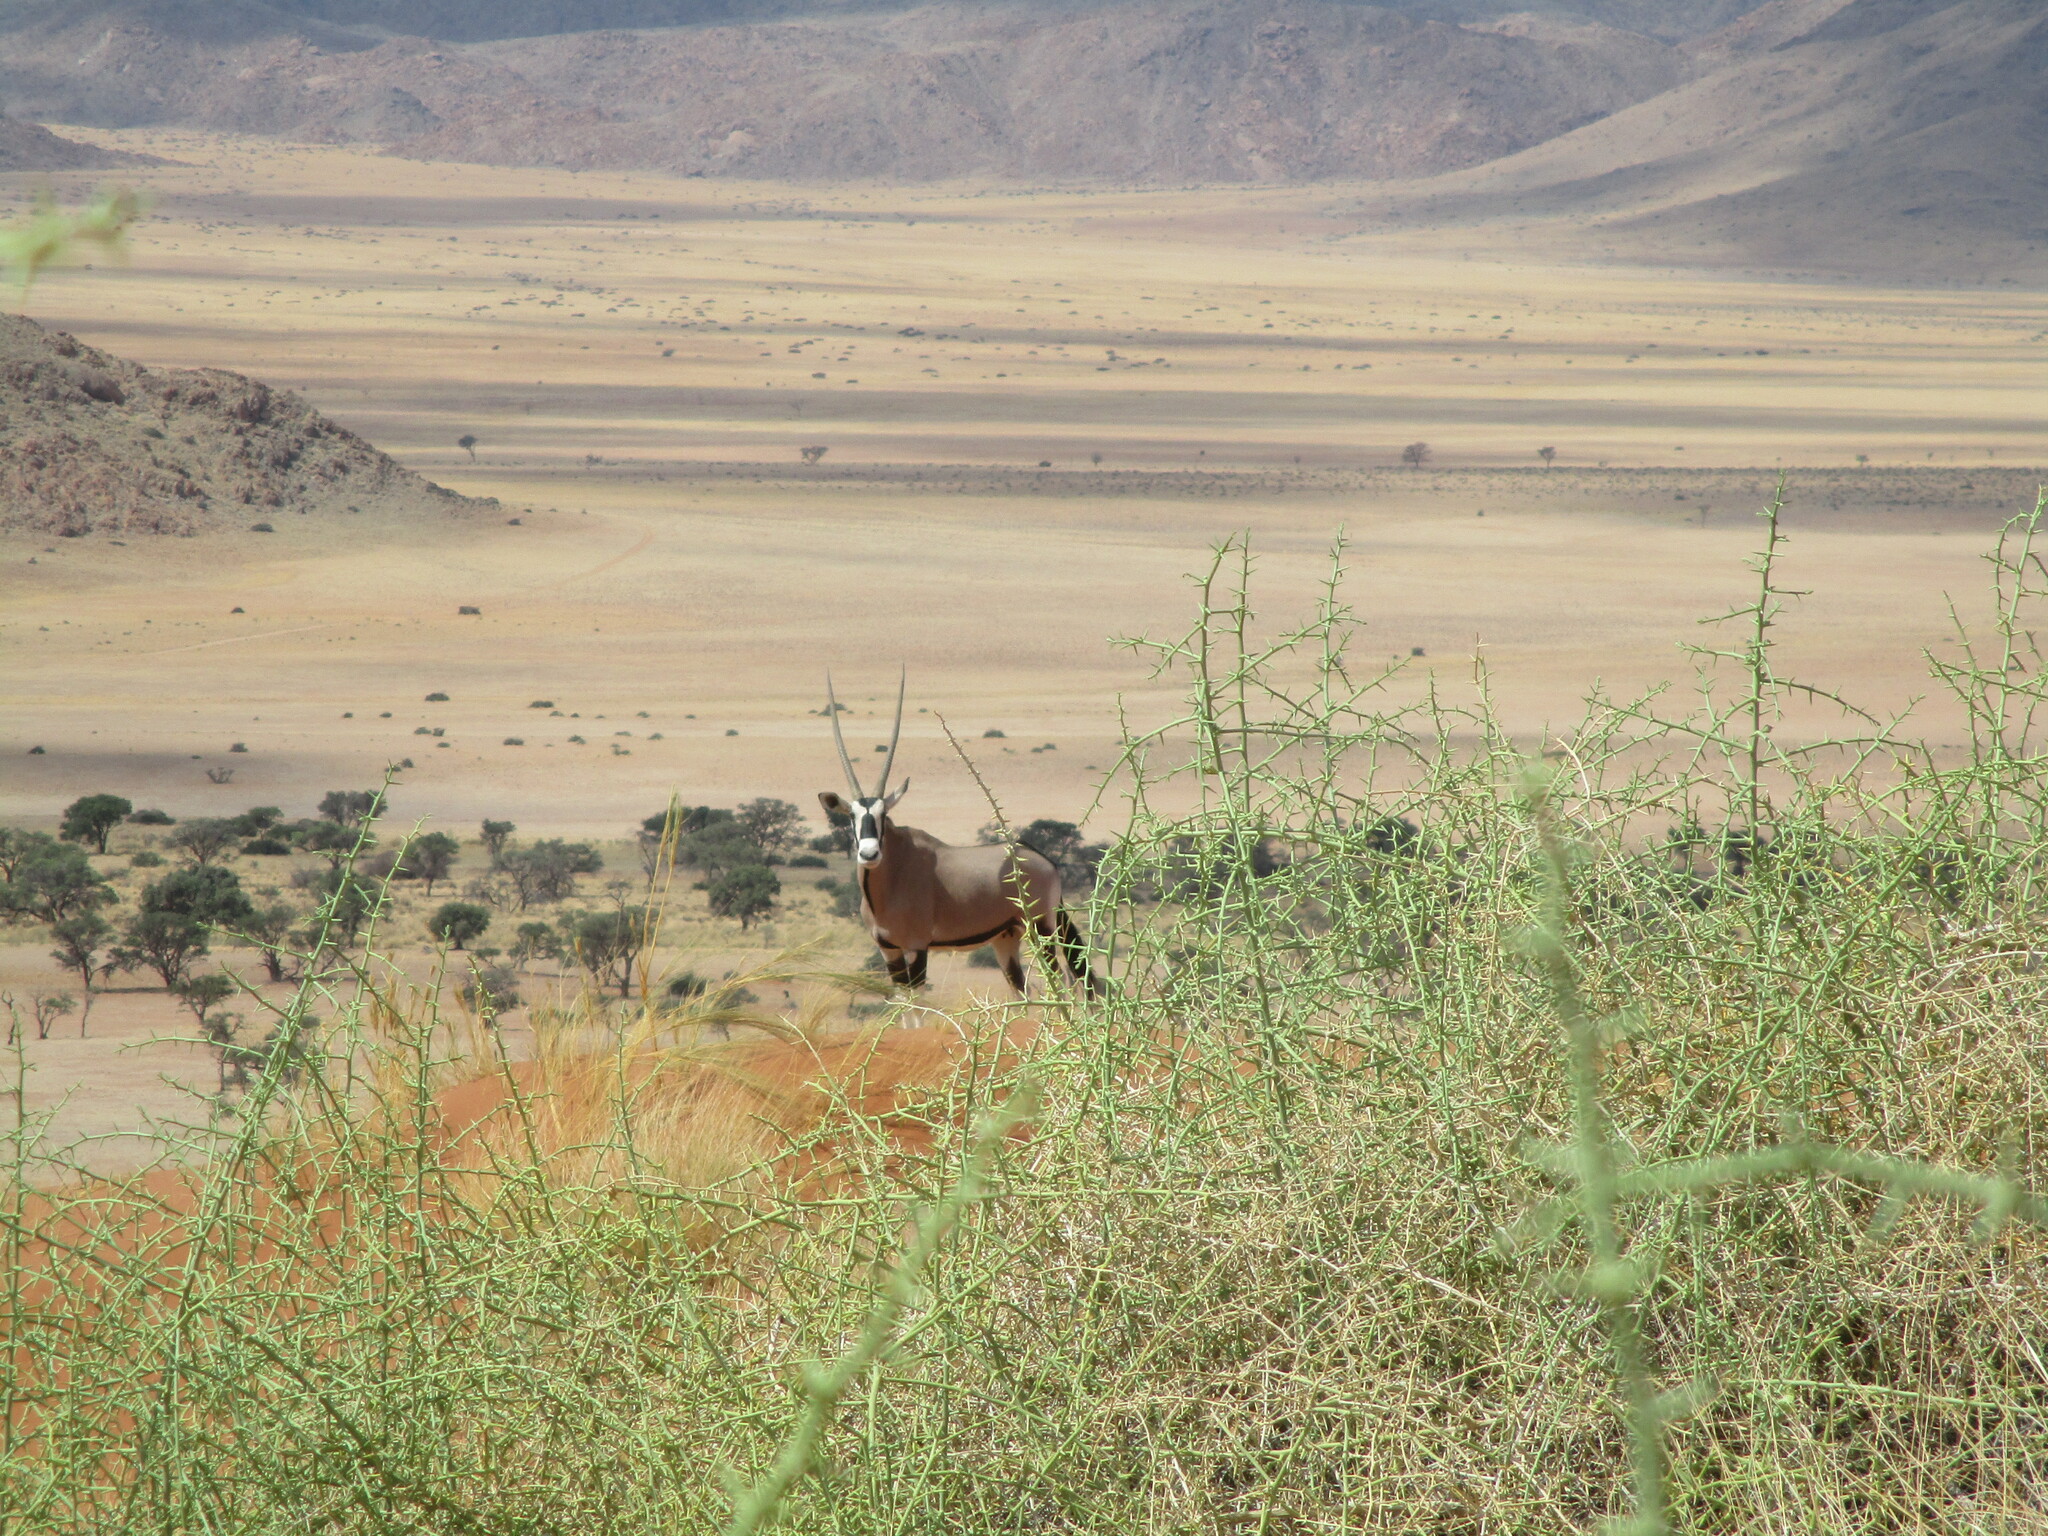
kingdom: Animalia
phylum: Chordata
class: Mammalia
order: Artiodactyla
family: Bovidae
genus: Oryx
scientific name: Oryx gazella
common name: Gemsbok
